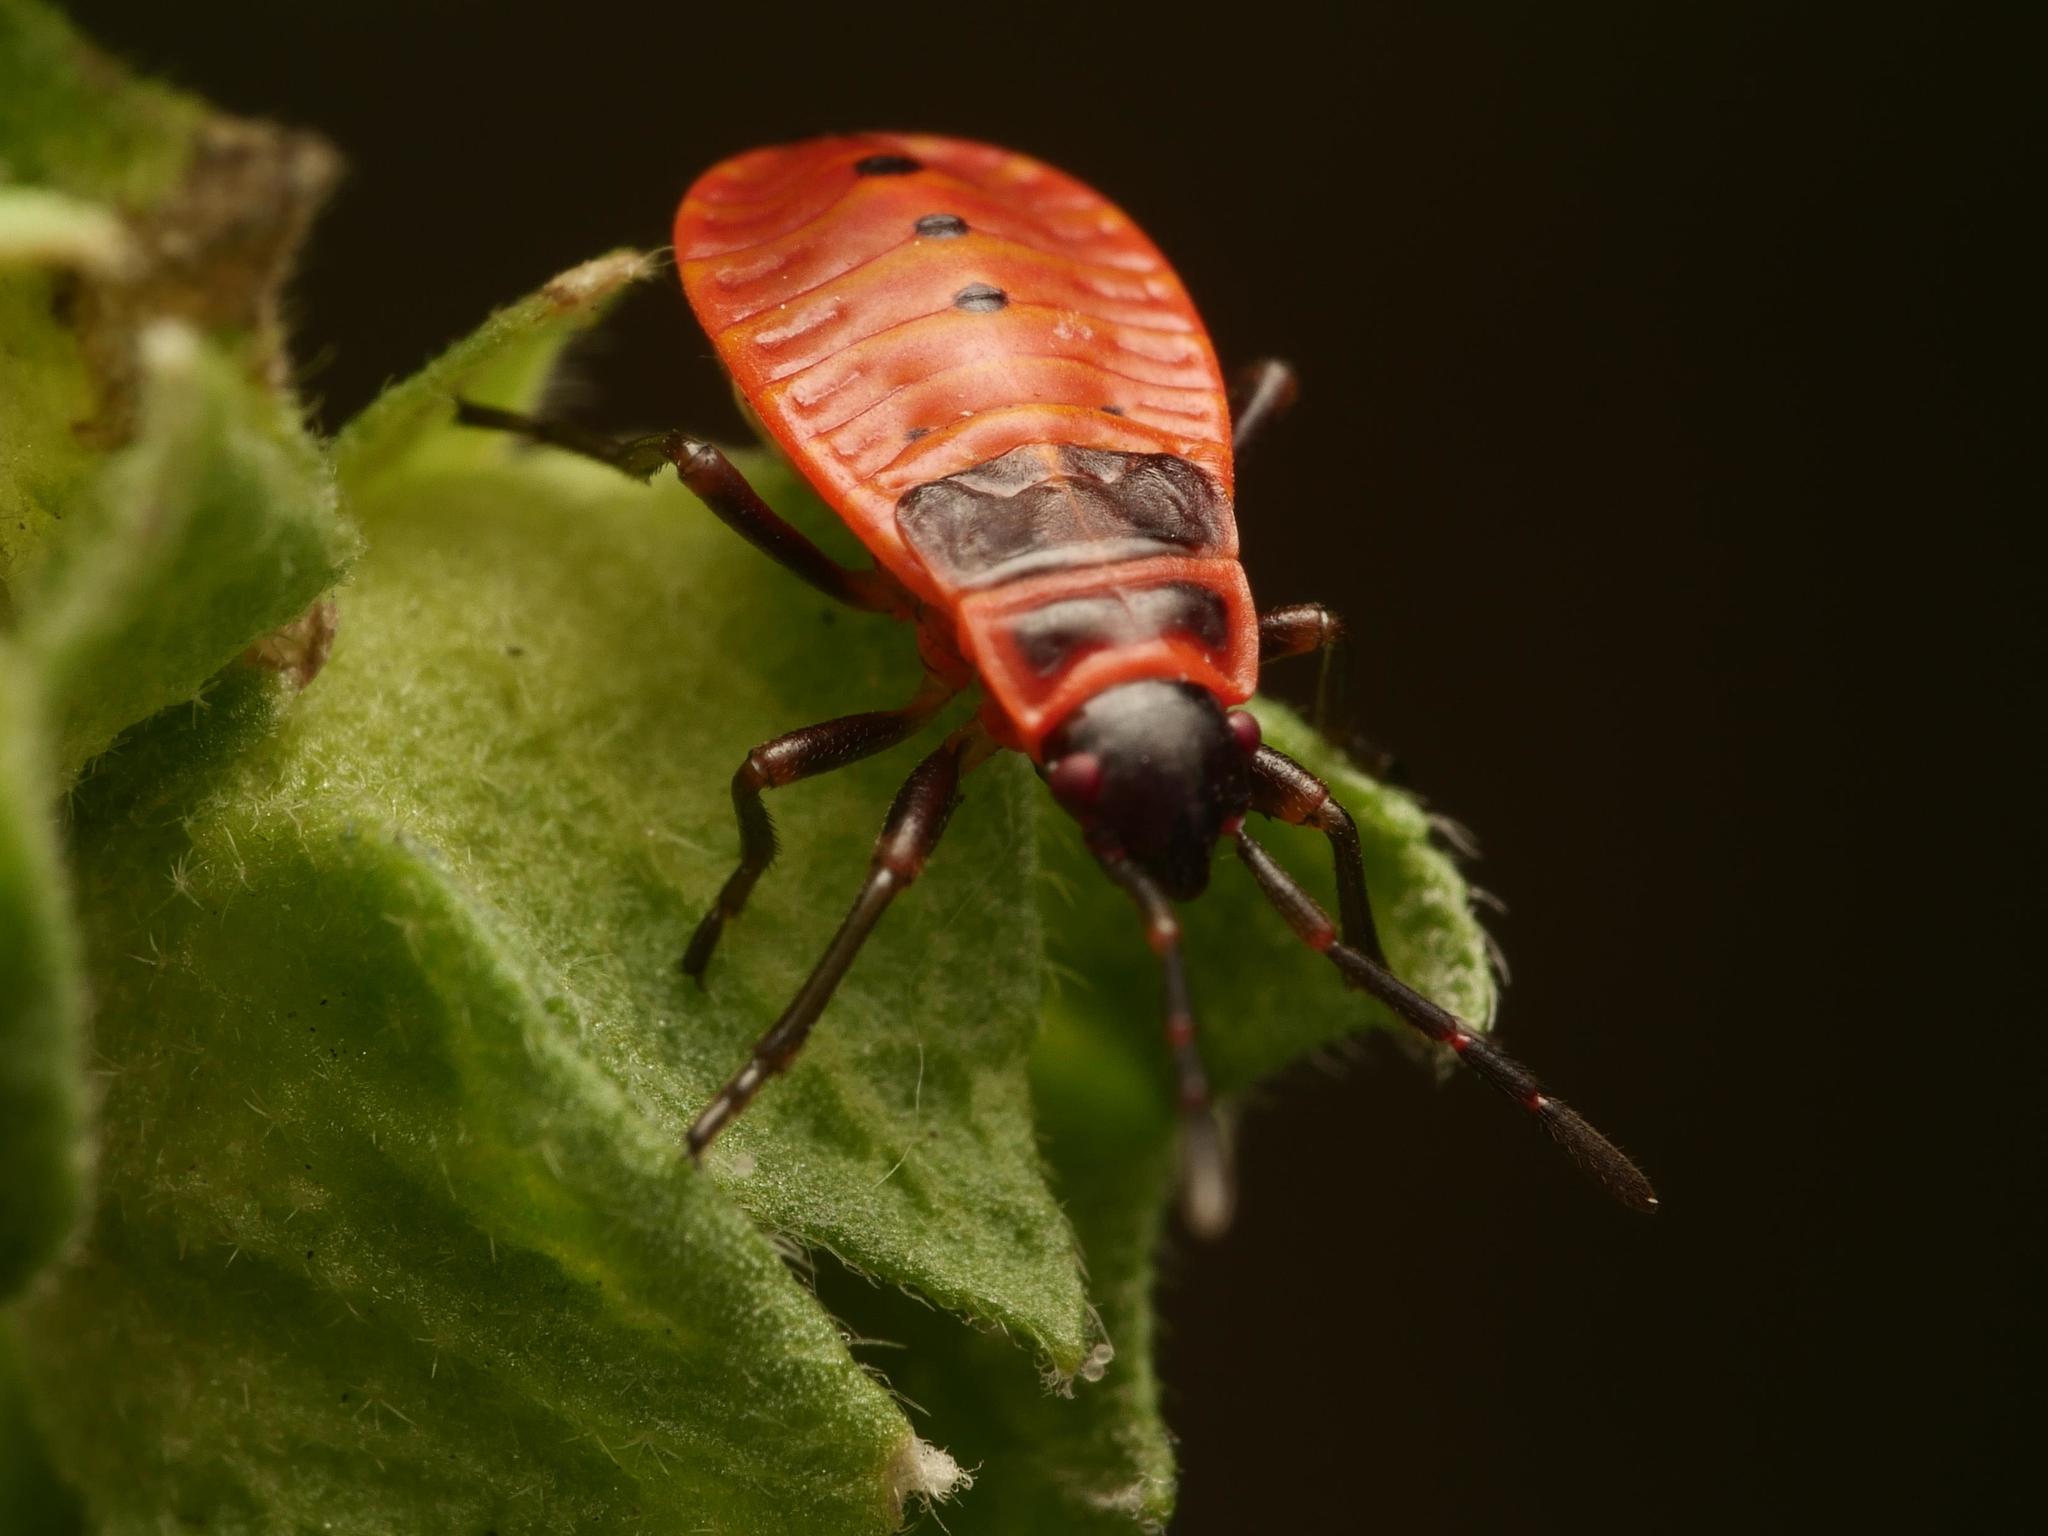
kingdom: Animalia
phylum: Arthropoda
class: Insecta
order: Hemiptera
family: Pyrrhocoridae
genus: Pyrrhocoris
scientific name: Pyrrhocoris apterus
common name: Firebug
